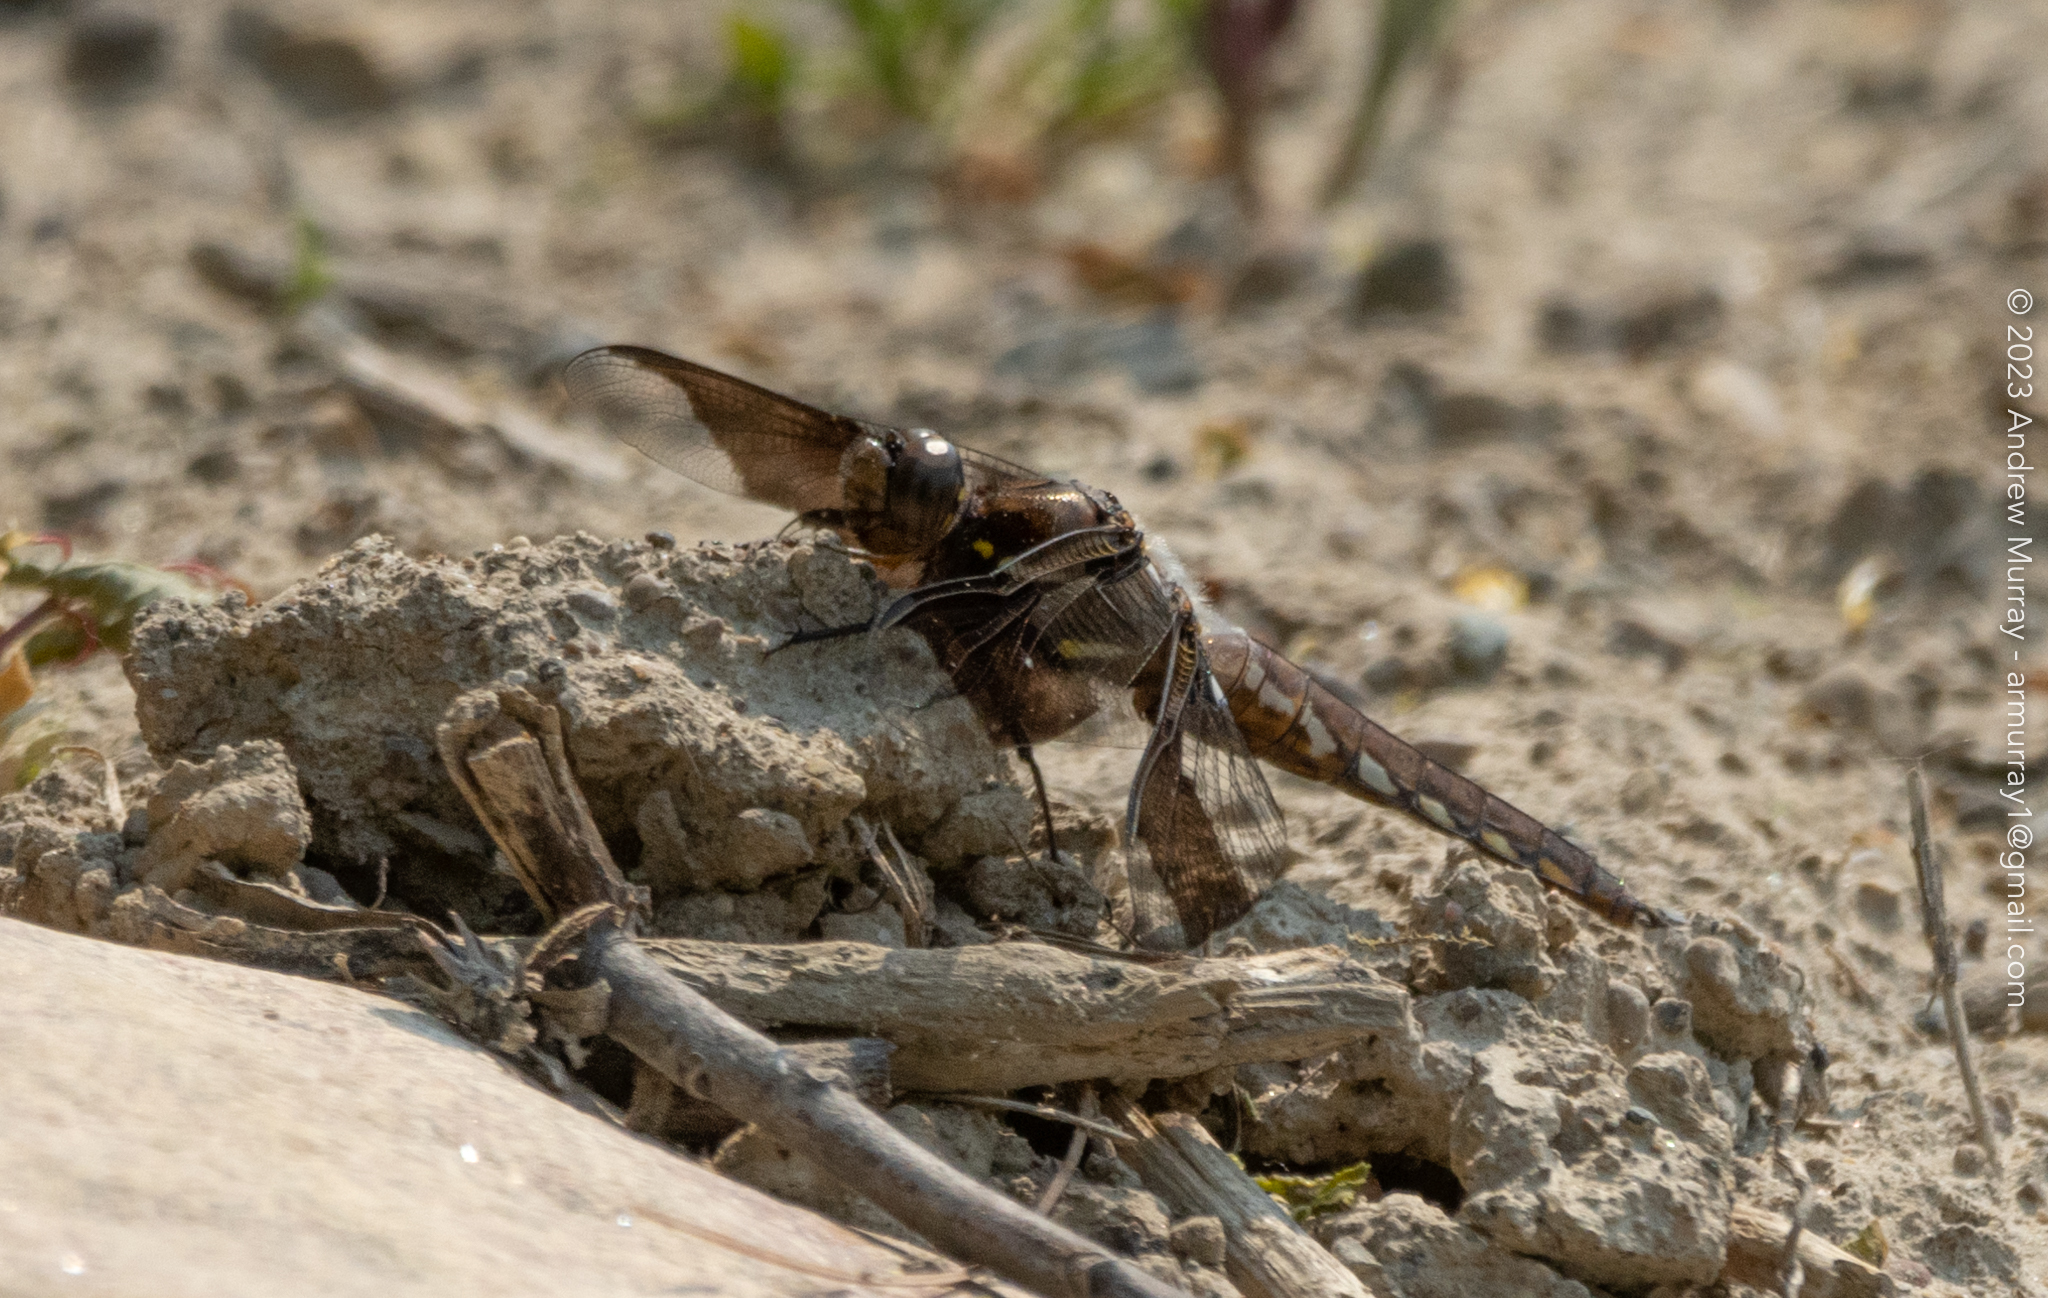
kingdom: Animalia
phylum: Arthropoda
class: Insecta
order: Odonata
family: Libellulidae
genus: Plathemis
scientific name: Plathemis lydia
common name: Common whitetail
